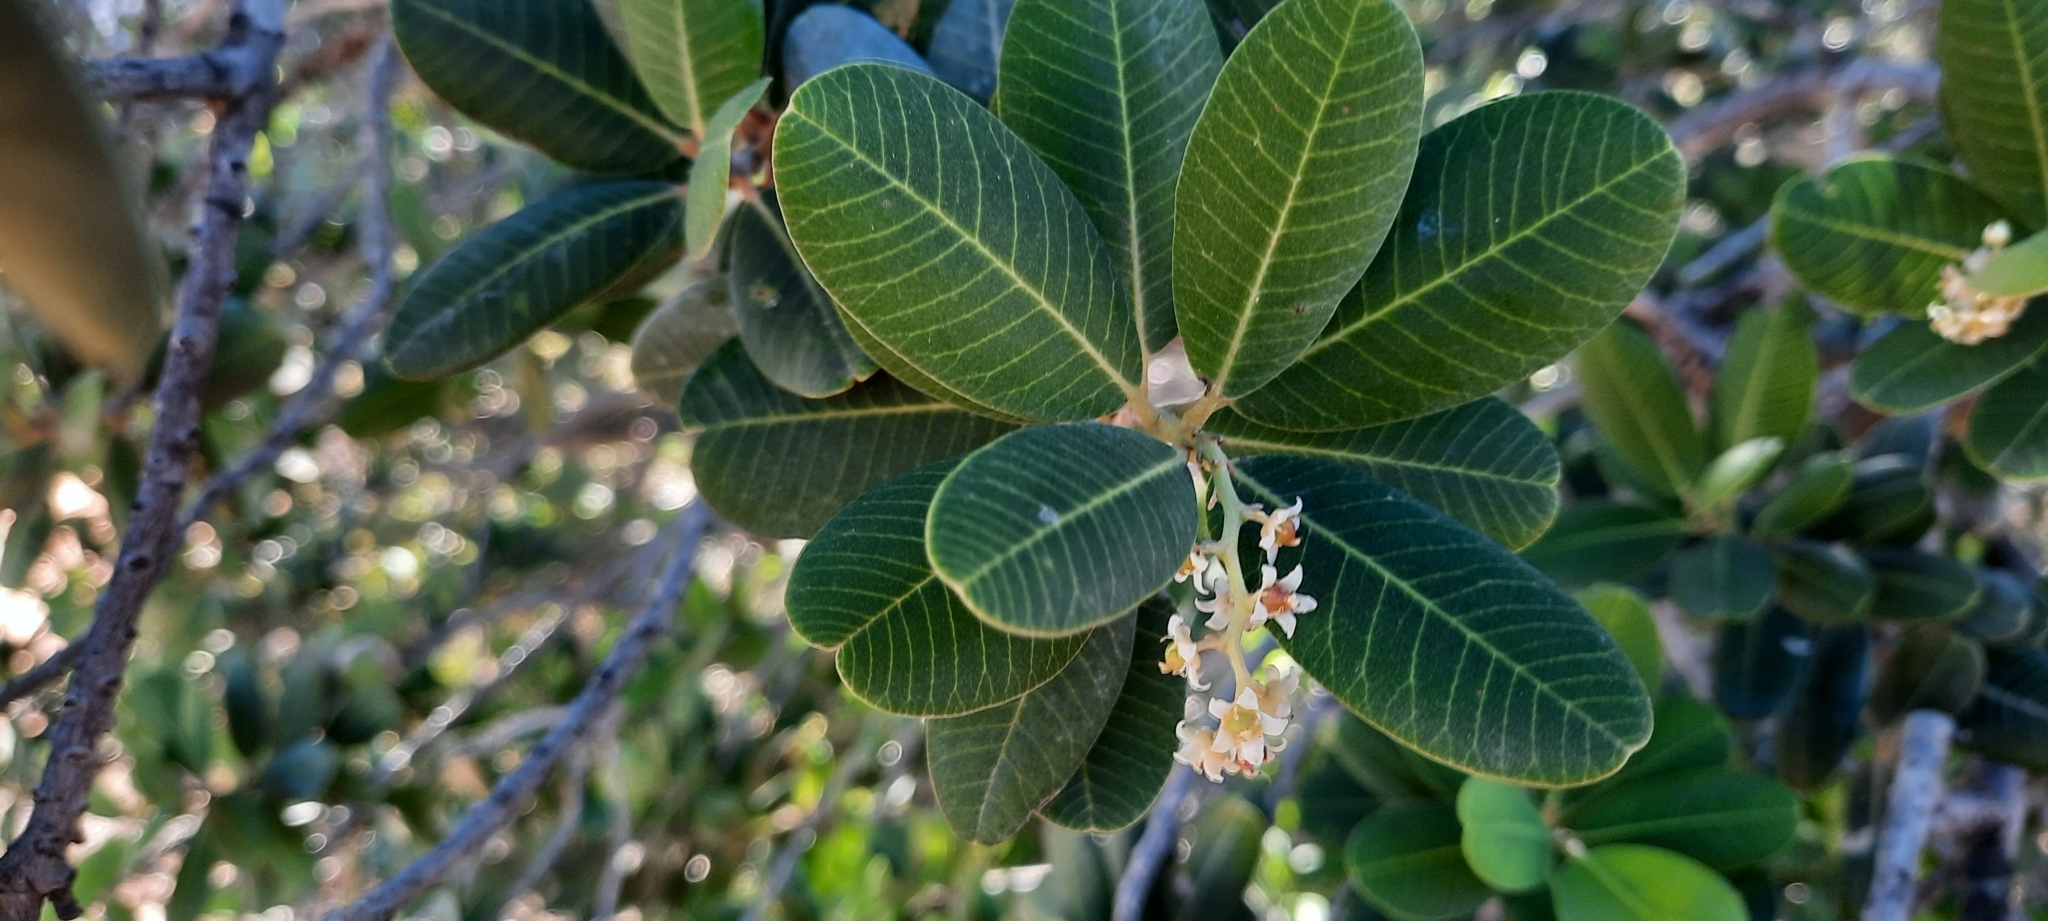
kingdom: Plantae
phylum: Tracheophyta
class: Magnoliopsida
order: Sapindales
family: Anacardiaceae
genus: Heeria
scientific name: Heeria argentea
